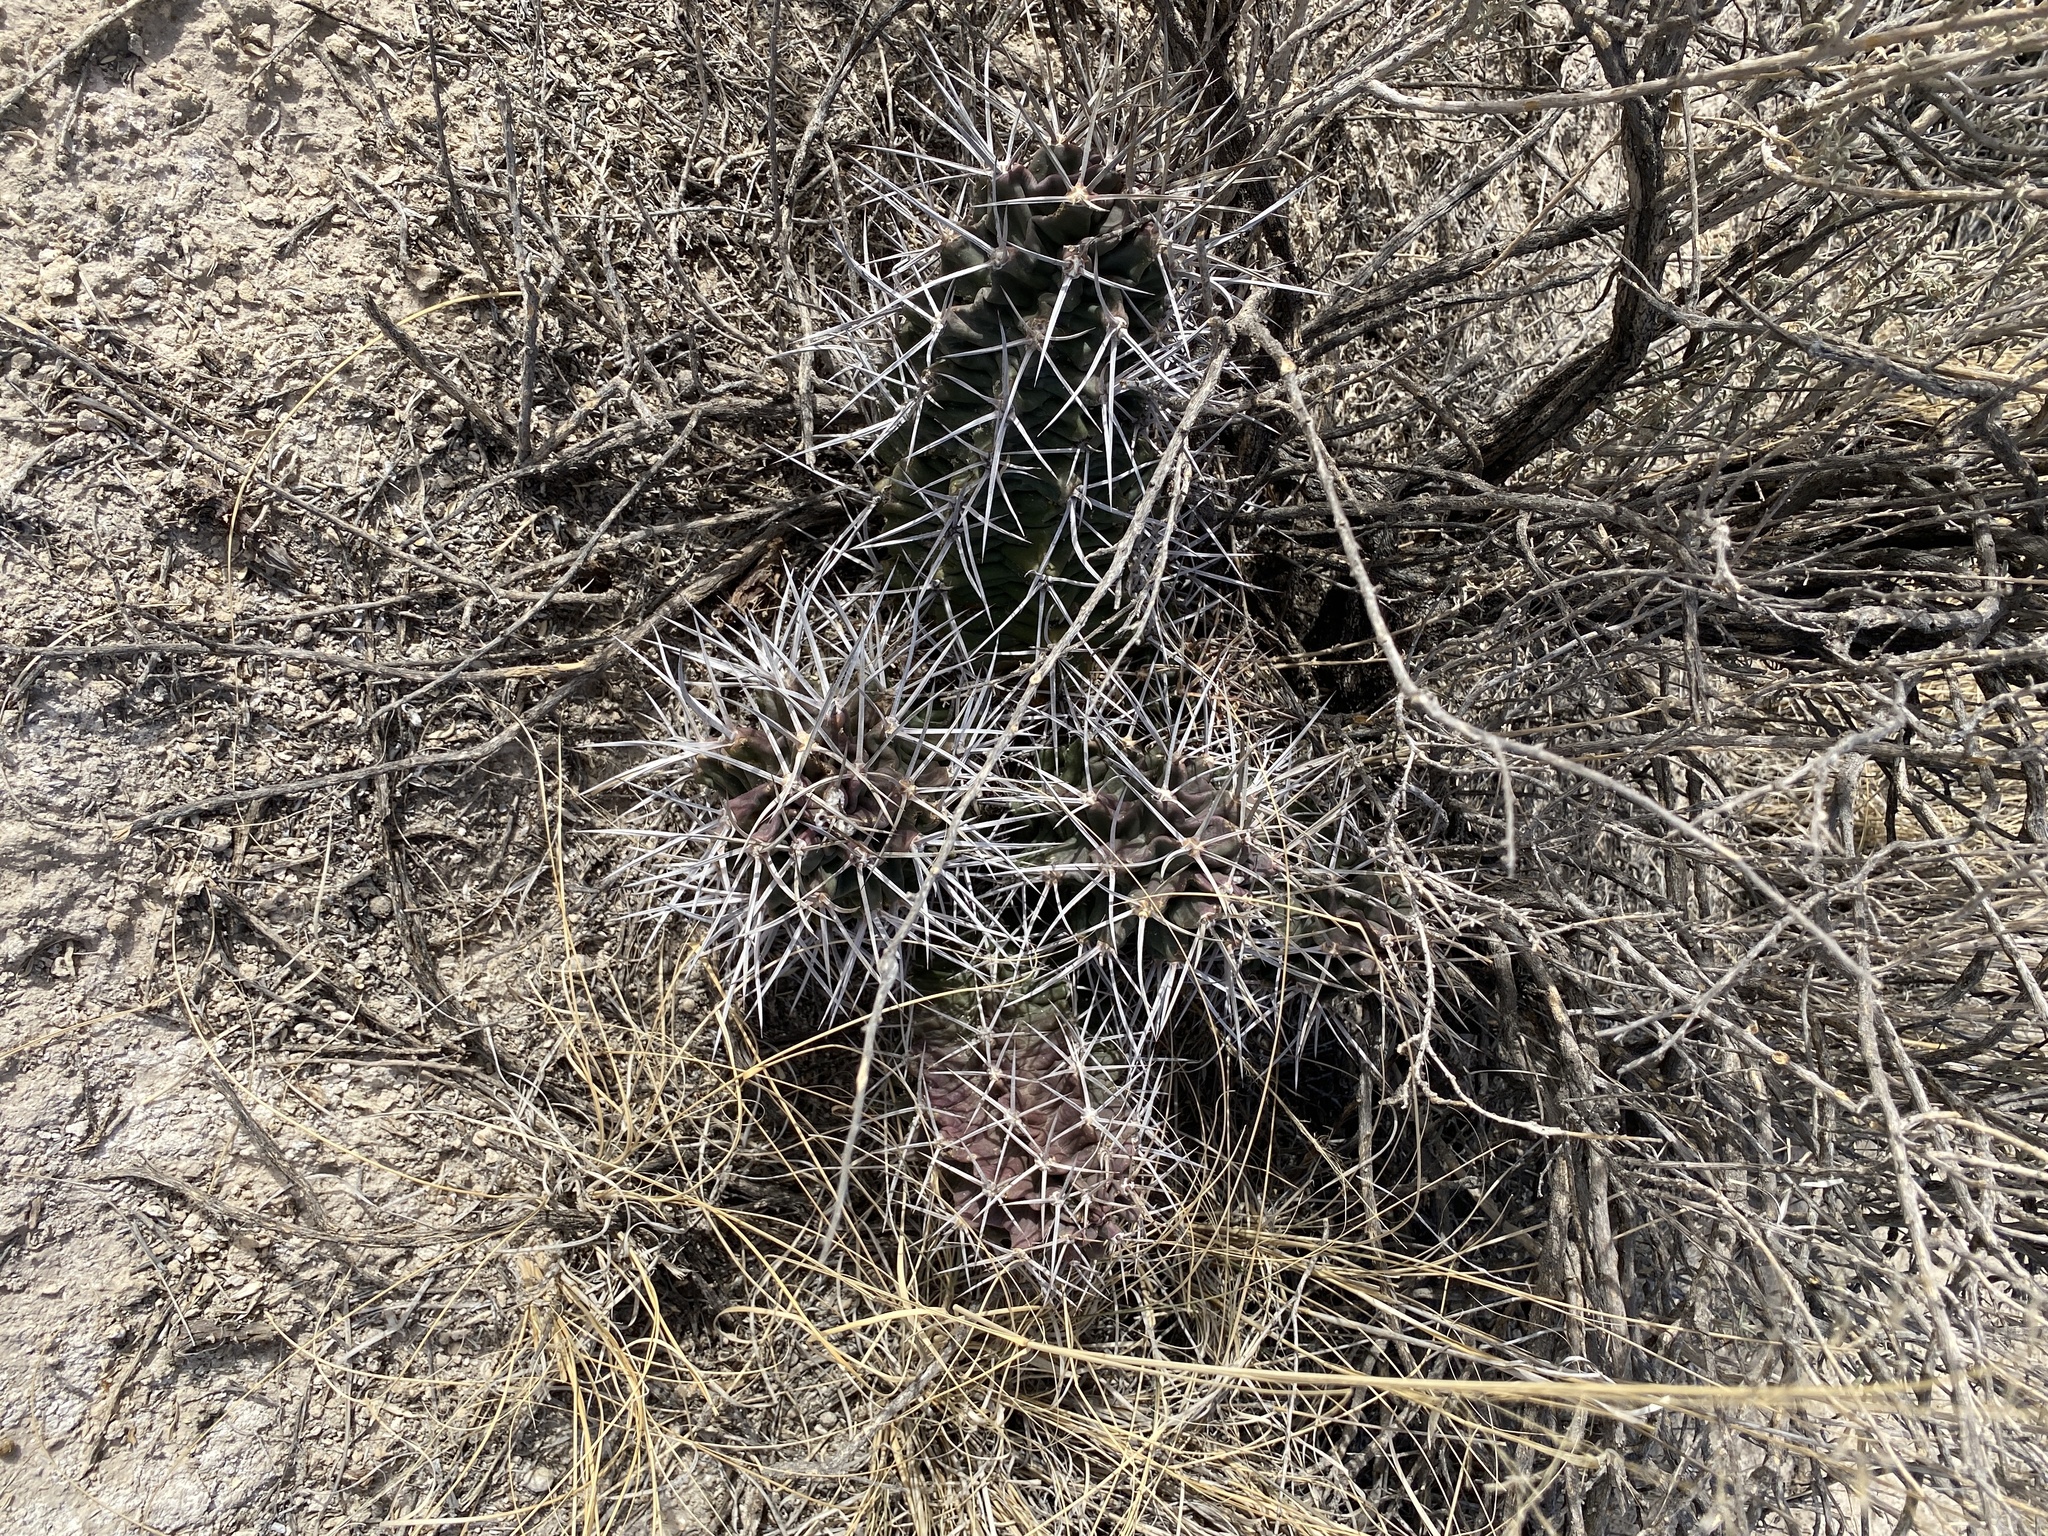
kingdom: Plantae
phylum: Tracheophyta
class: Magnoliopsida
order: Caryophyllales
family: Cactaceae
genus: Echinocereus
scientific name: Echinocereus triglochidiatus
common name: Claretcup hedgehog
